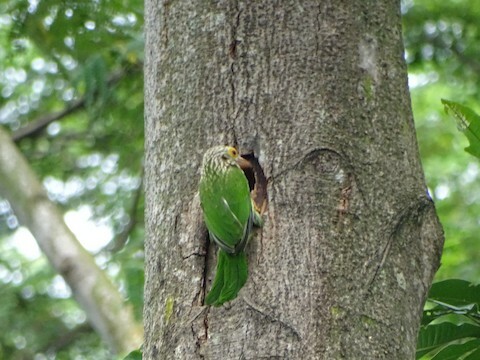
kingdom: Animalia
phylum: Chordata
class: Aves
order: Piciformes
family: Megalaimidae
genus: Psilopogon
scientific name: Psilopogon lineatus
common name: Lineated barbet
